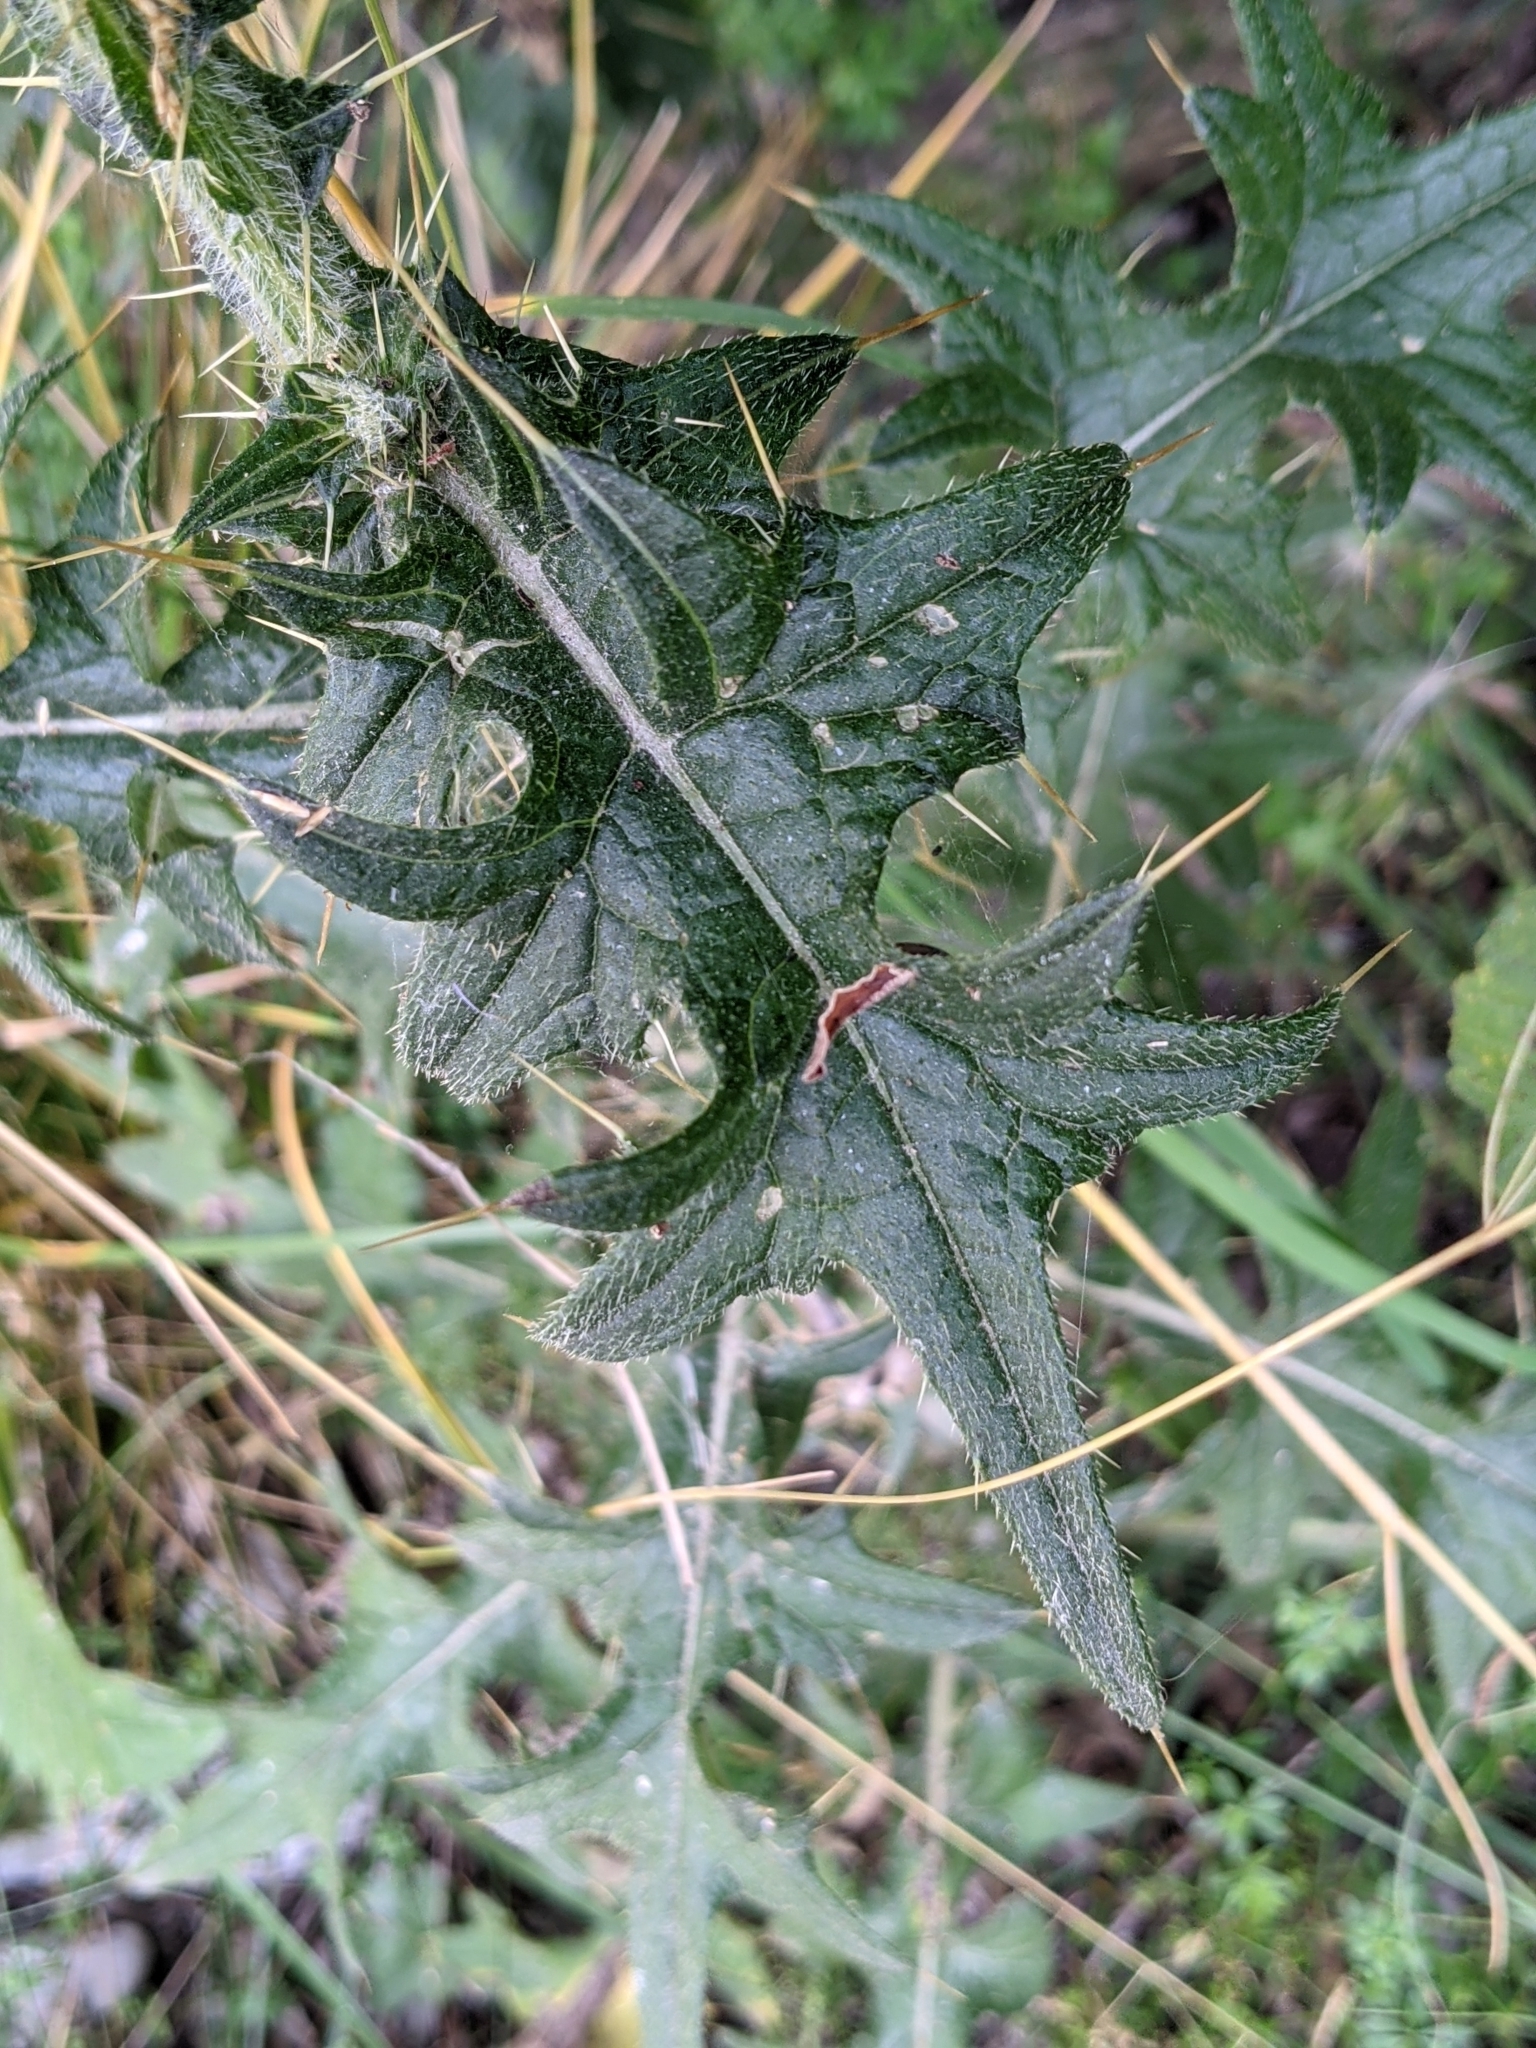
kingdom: Plantae
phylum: Tracheophyta
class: Magnoliopsida
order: Asterales
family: Asteraceae
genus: Cirsium
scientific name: Cirsium vulgare
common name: Bull thistle
